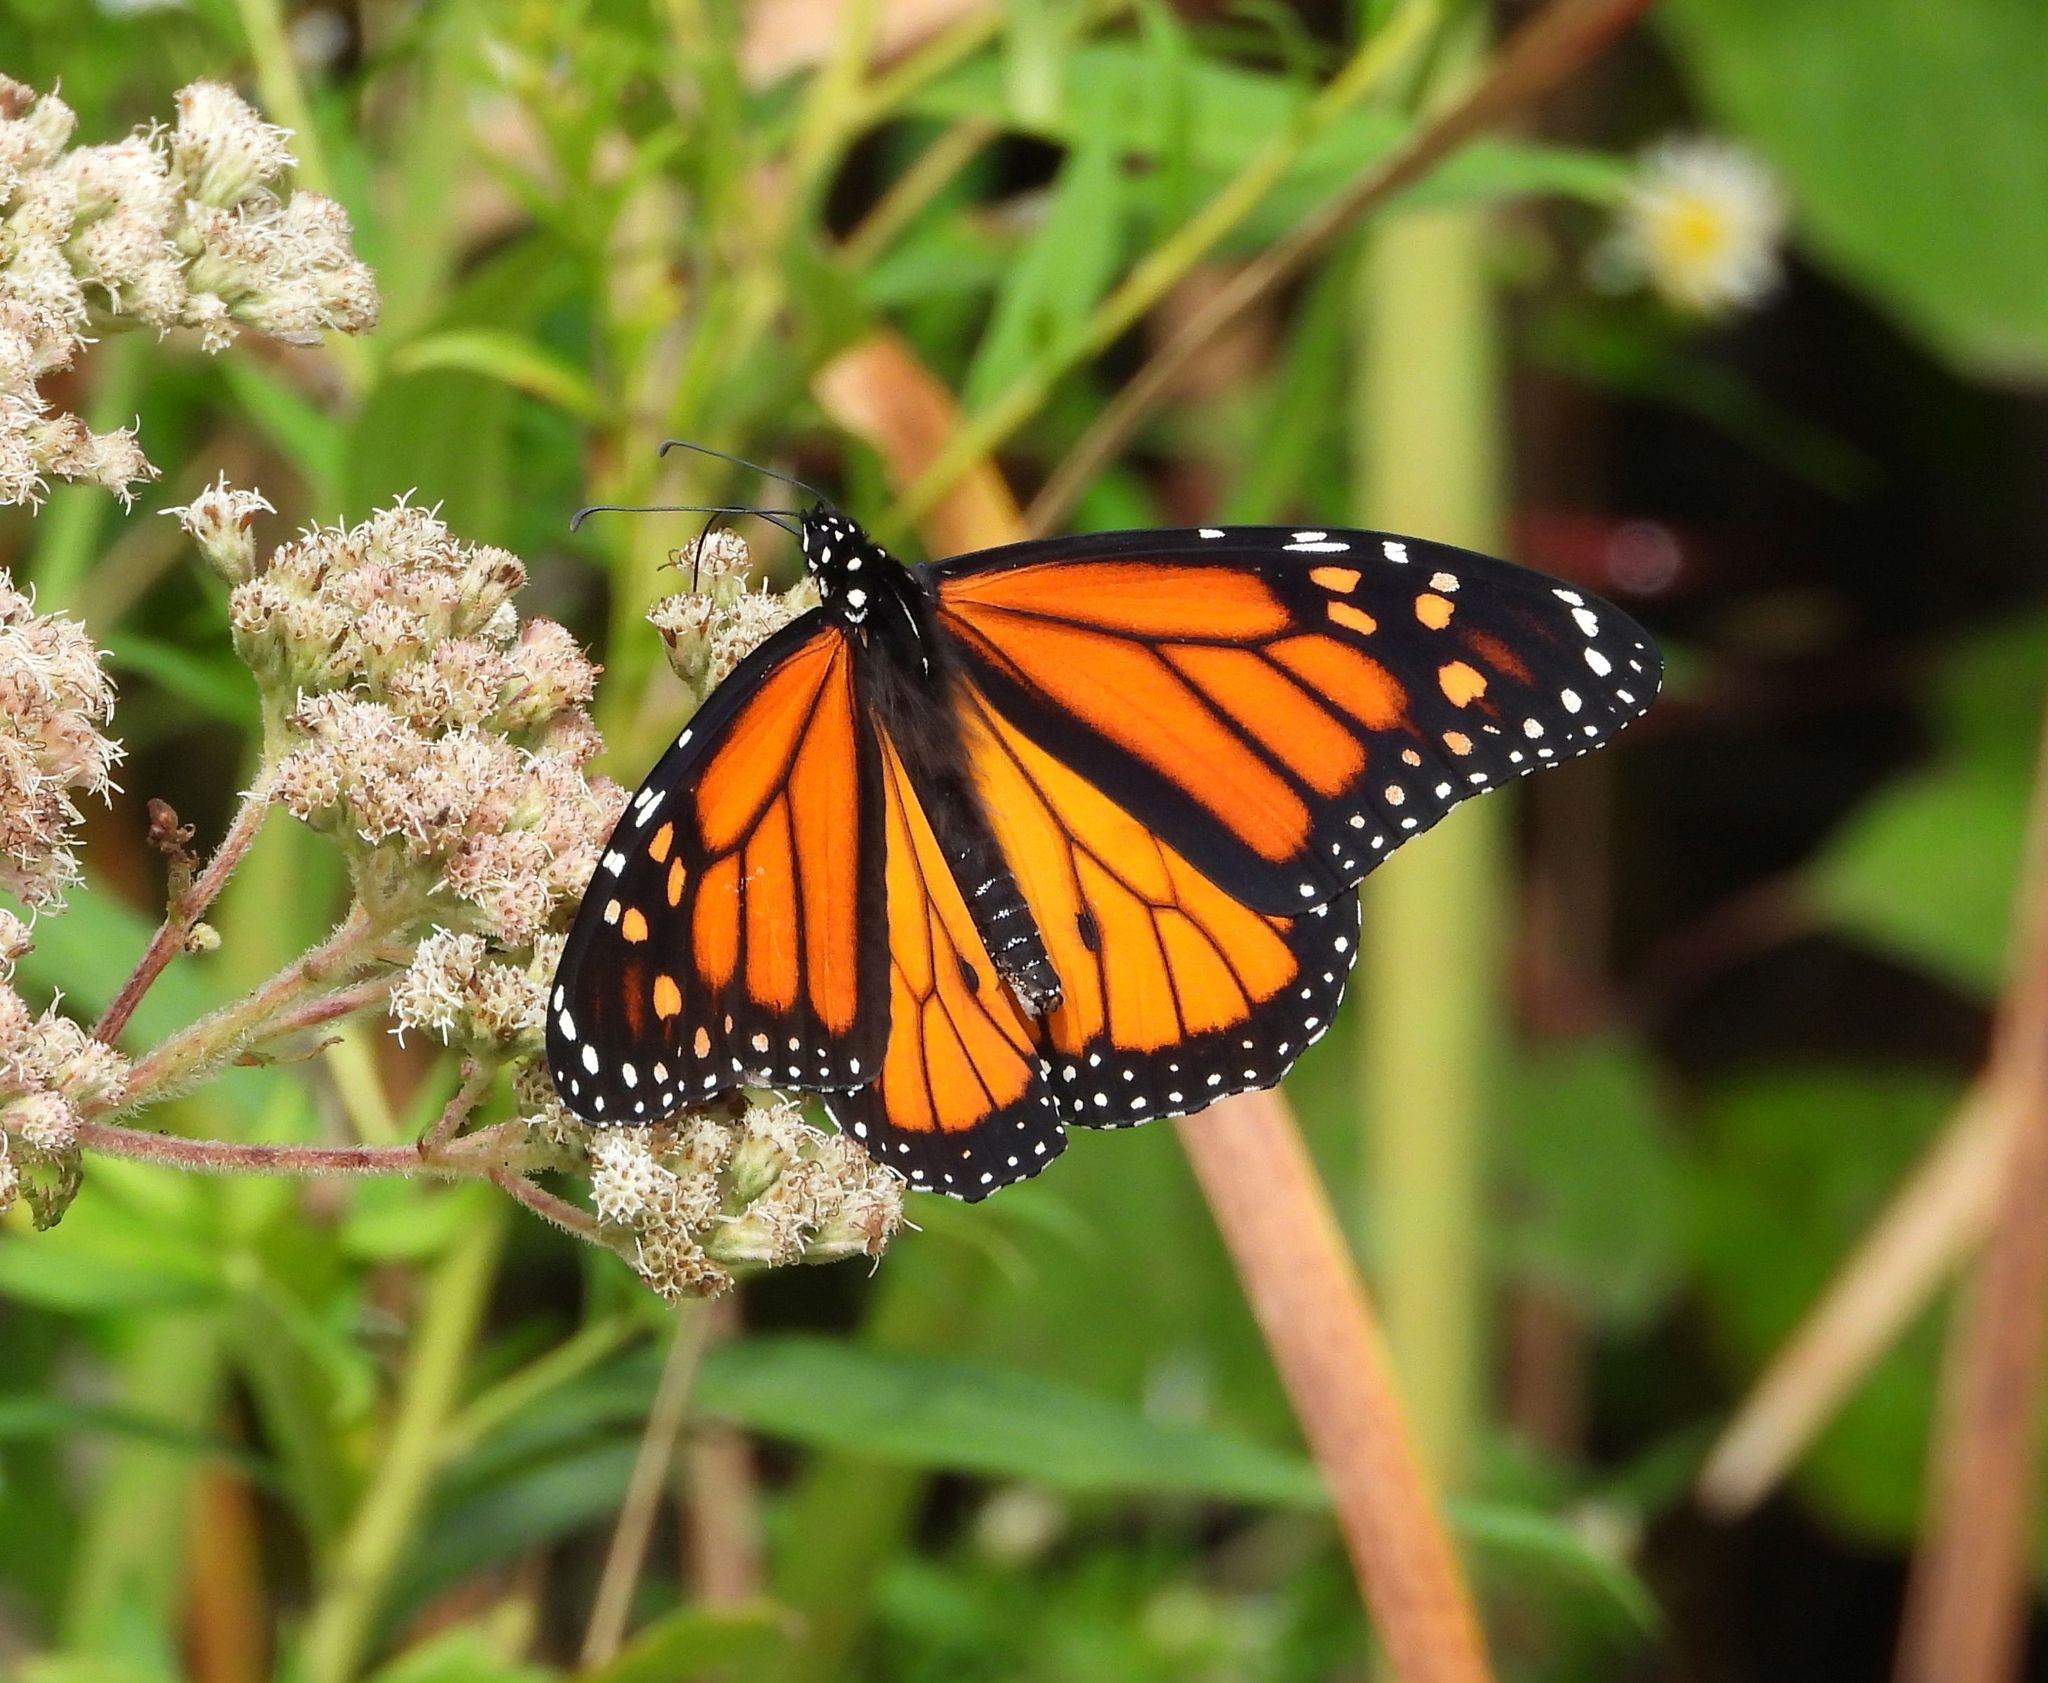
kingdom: Animalia
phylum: Arthropoda
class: Insecta
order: Lepidoptera
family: Nymphalidae
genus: Danaus
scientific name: Danaus plexippus
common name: Monarch
